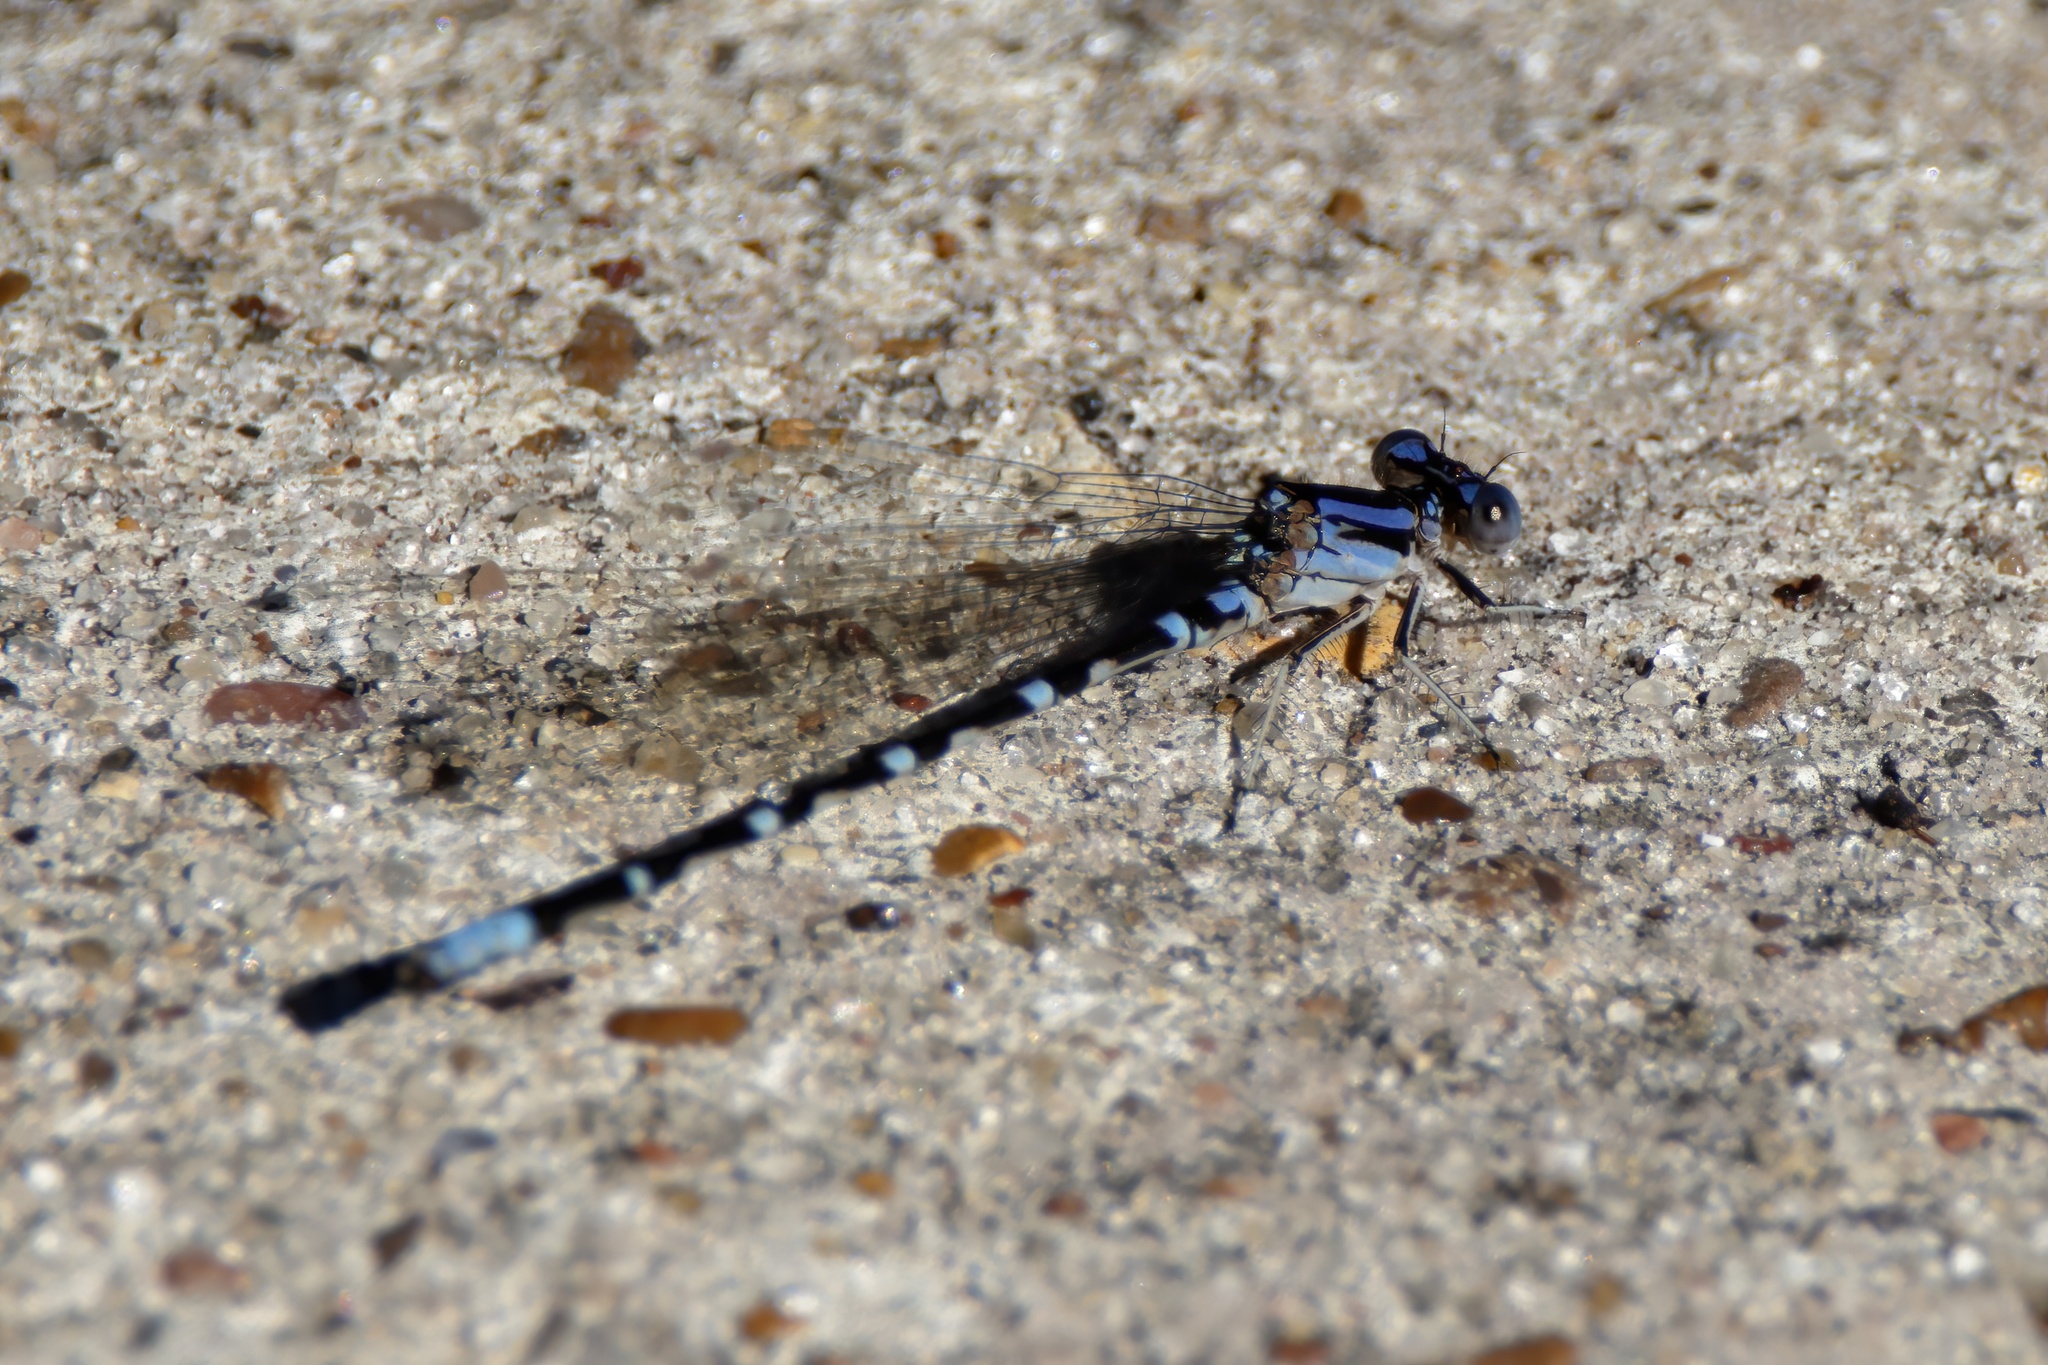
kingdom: Animalia
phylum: Arthropoda
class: Insecta
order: Odonata
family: Coenagrionidae
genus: Argia
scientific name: Argia sedula
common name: Blue-ringed dancer
